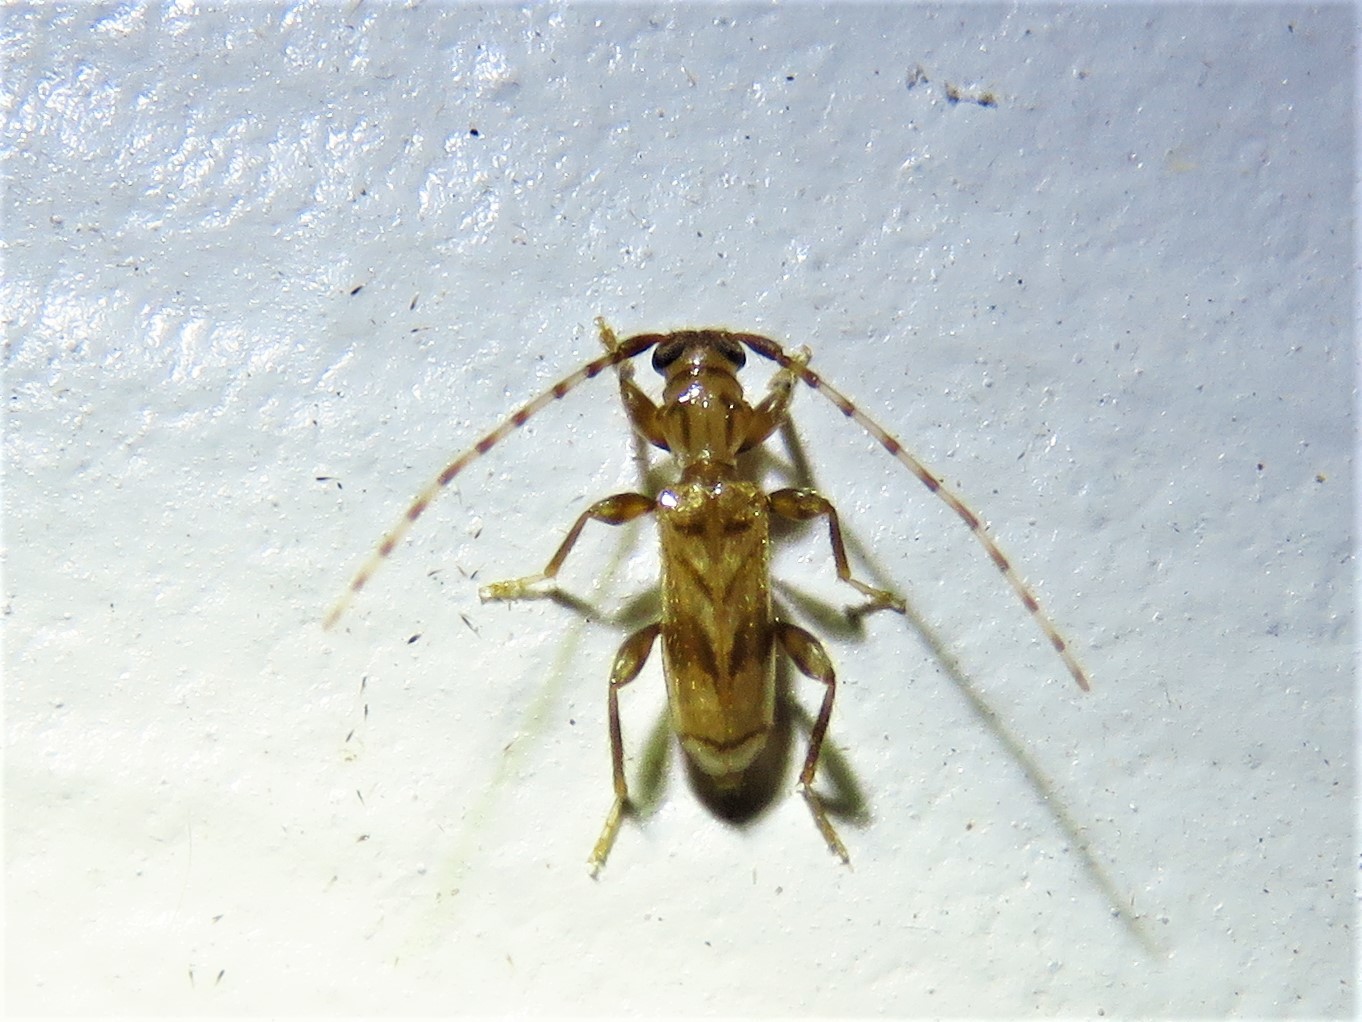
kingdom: Animalia
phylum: Arthropoda
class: Insecta
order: Coleoptera
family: Cerambycidae
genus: Obrium
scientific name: Obrium maculatum
